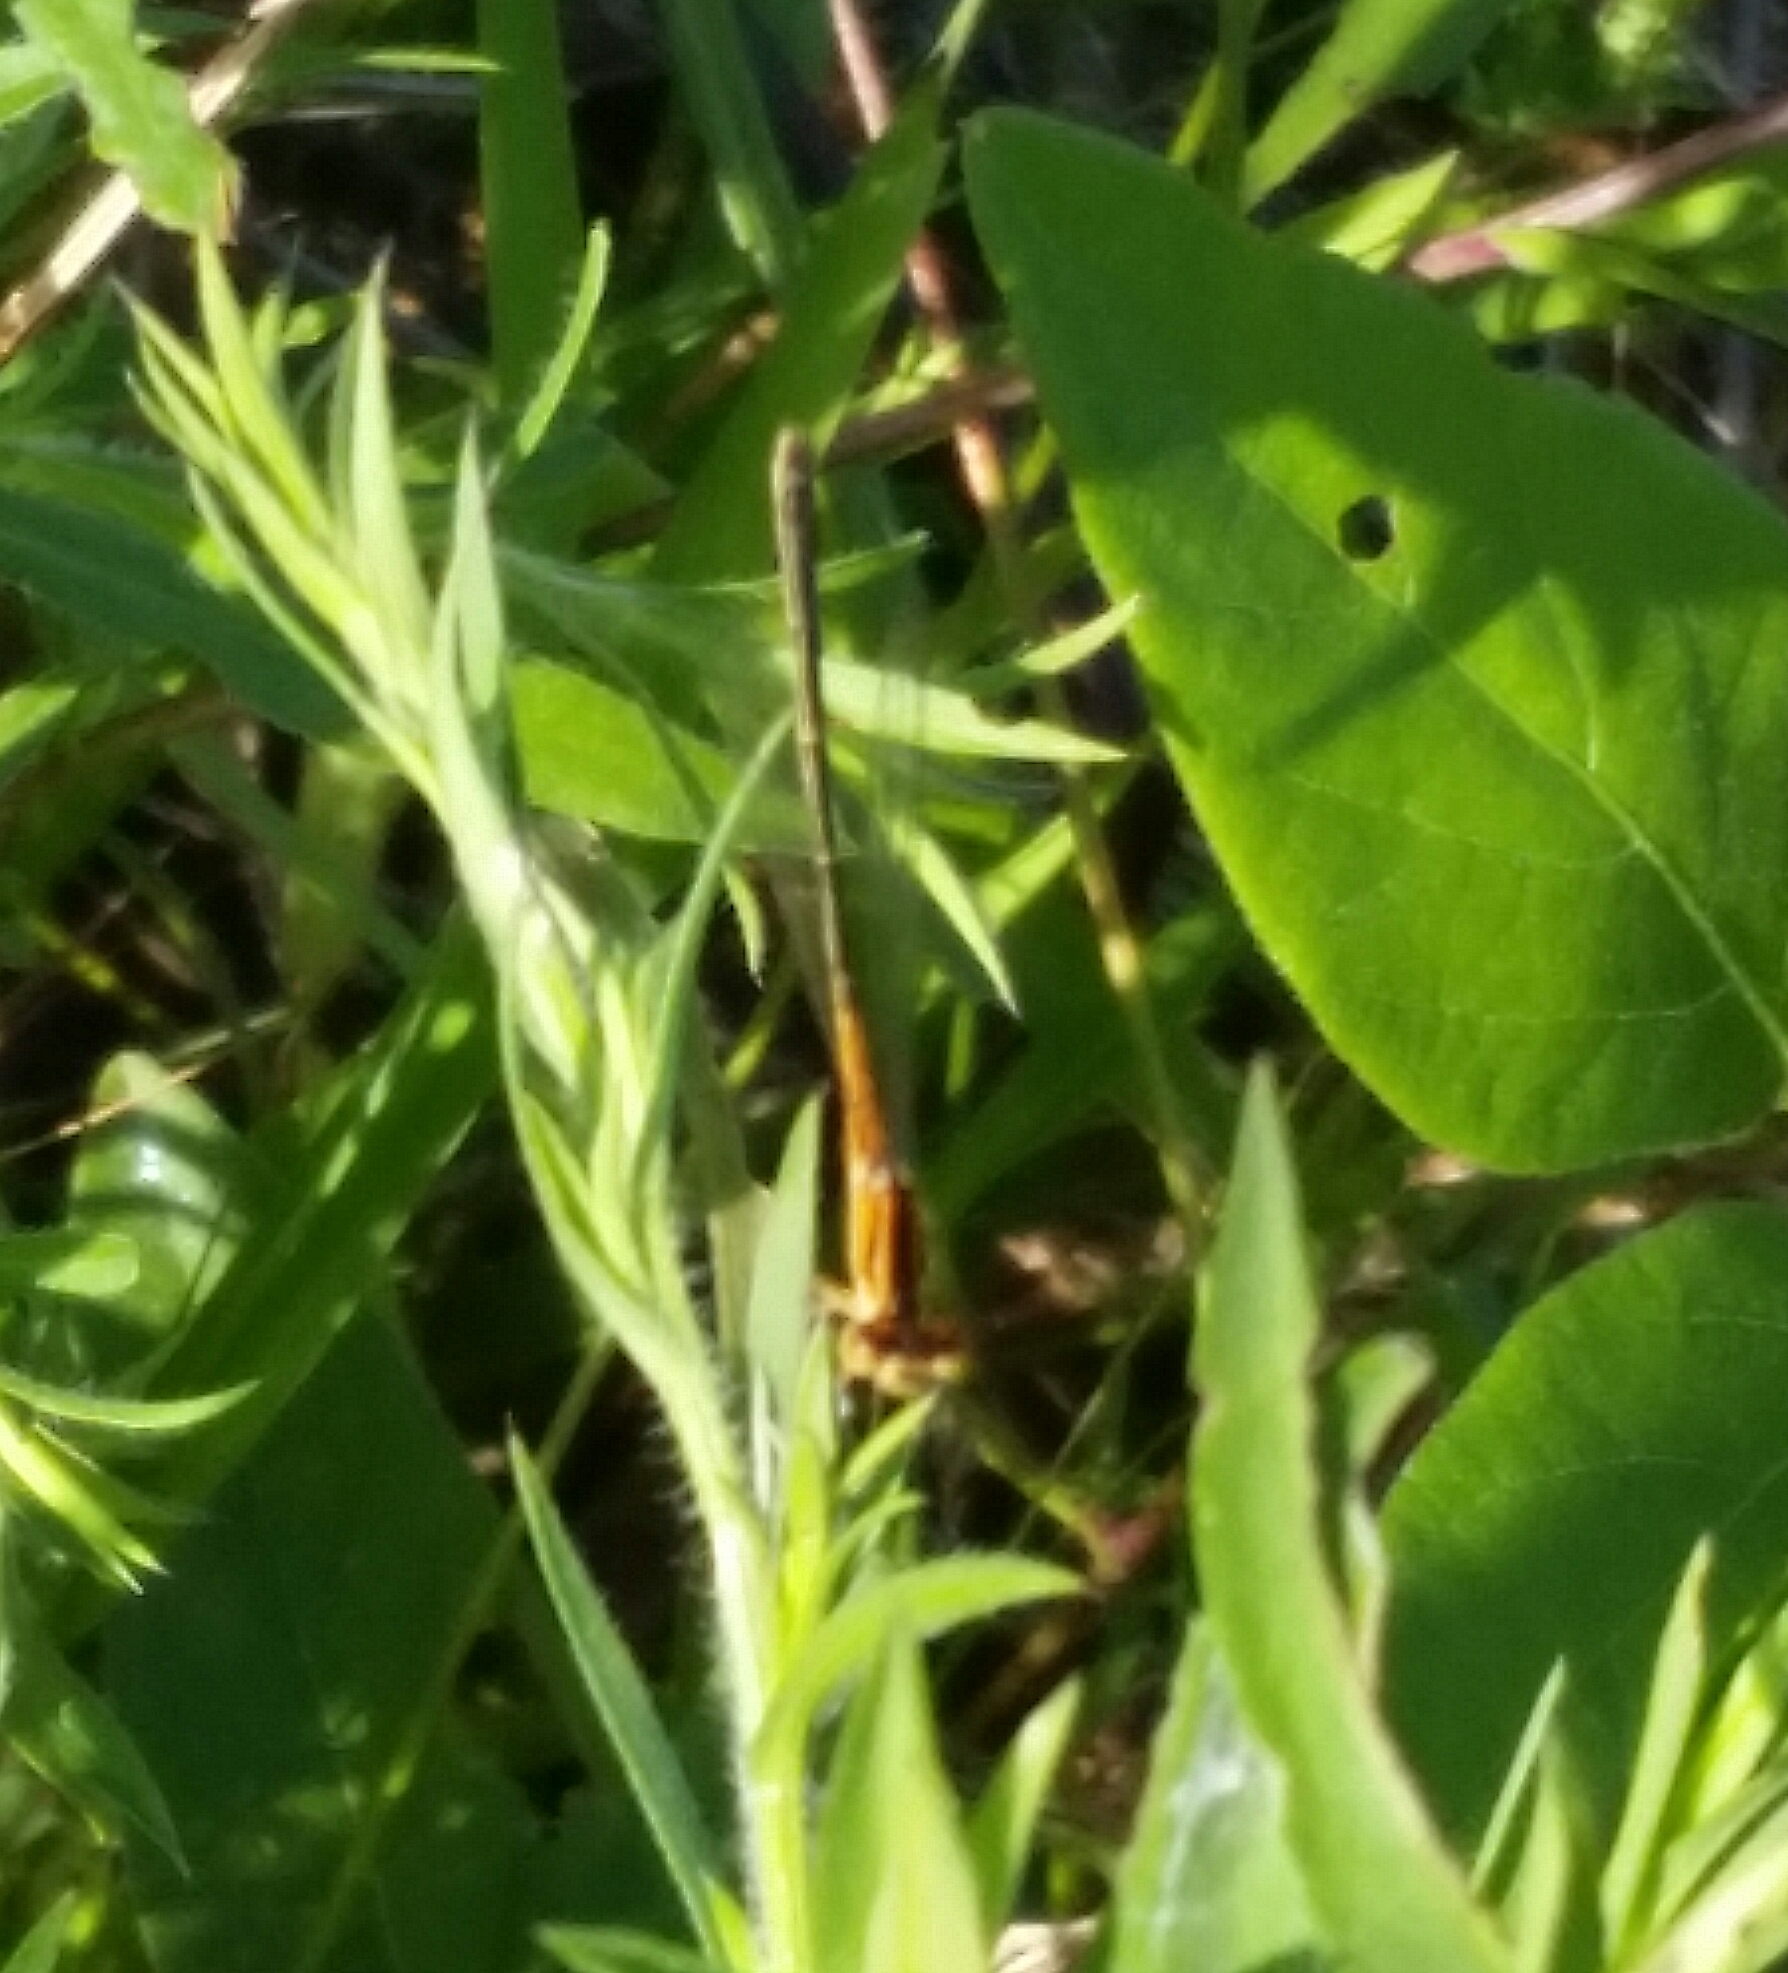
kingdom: Animalia
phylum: Arthropoda
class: Insecta
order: Odonata
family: Coenagrionidae
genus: Ischnura
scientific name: Ischnura verticalis
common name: Eastern forktail
